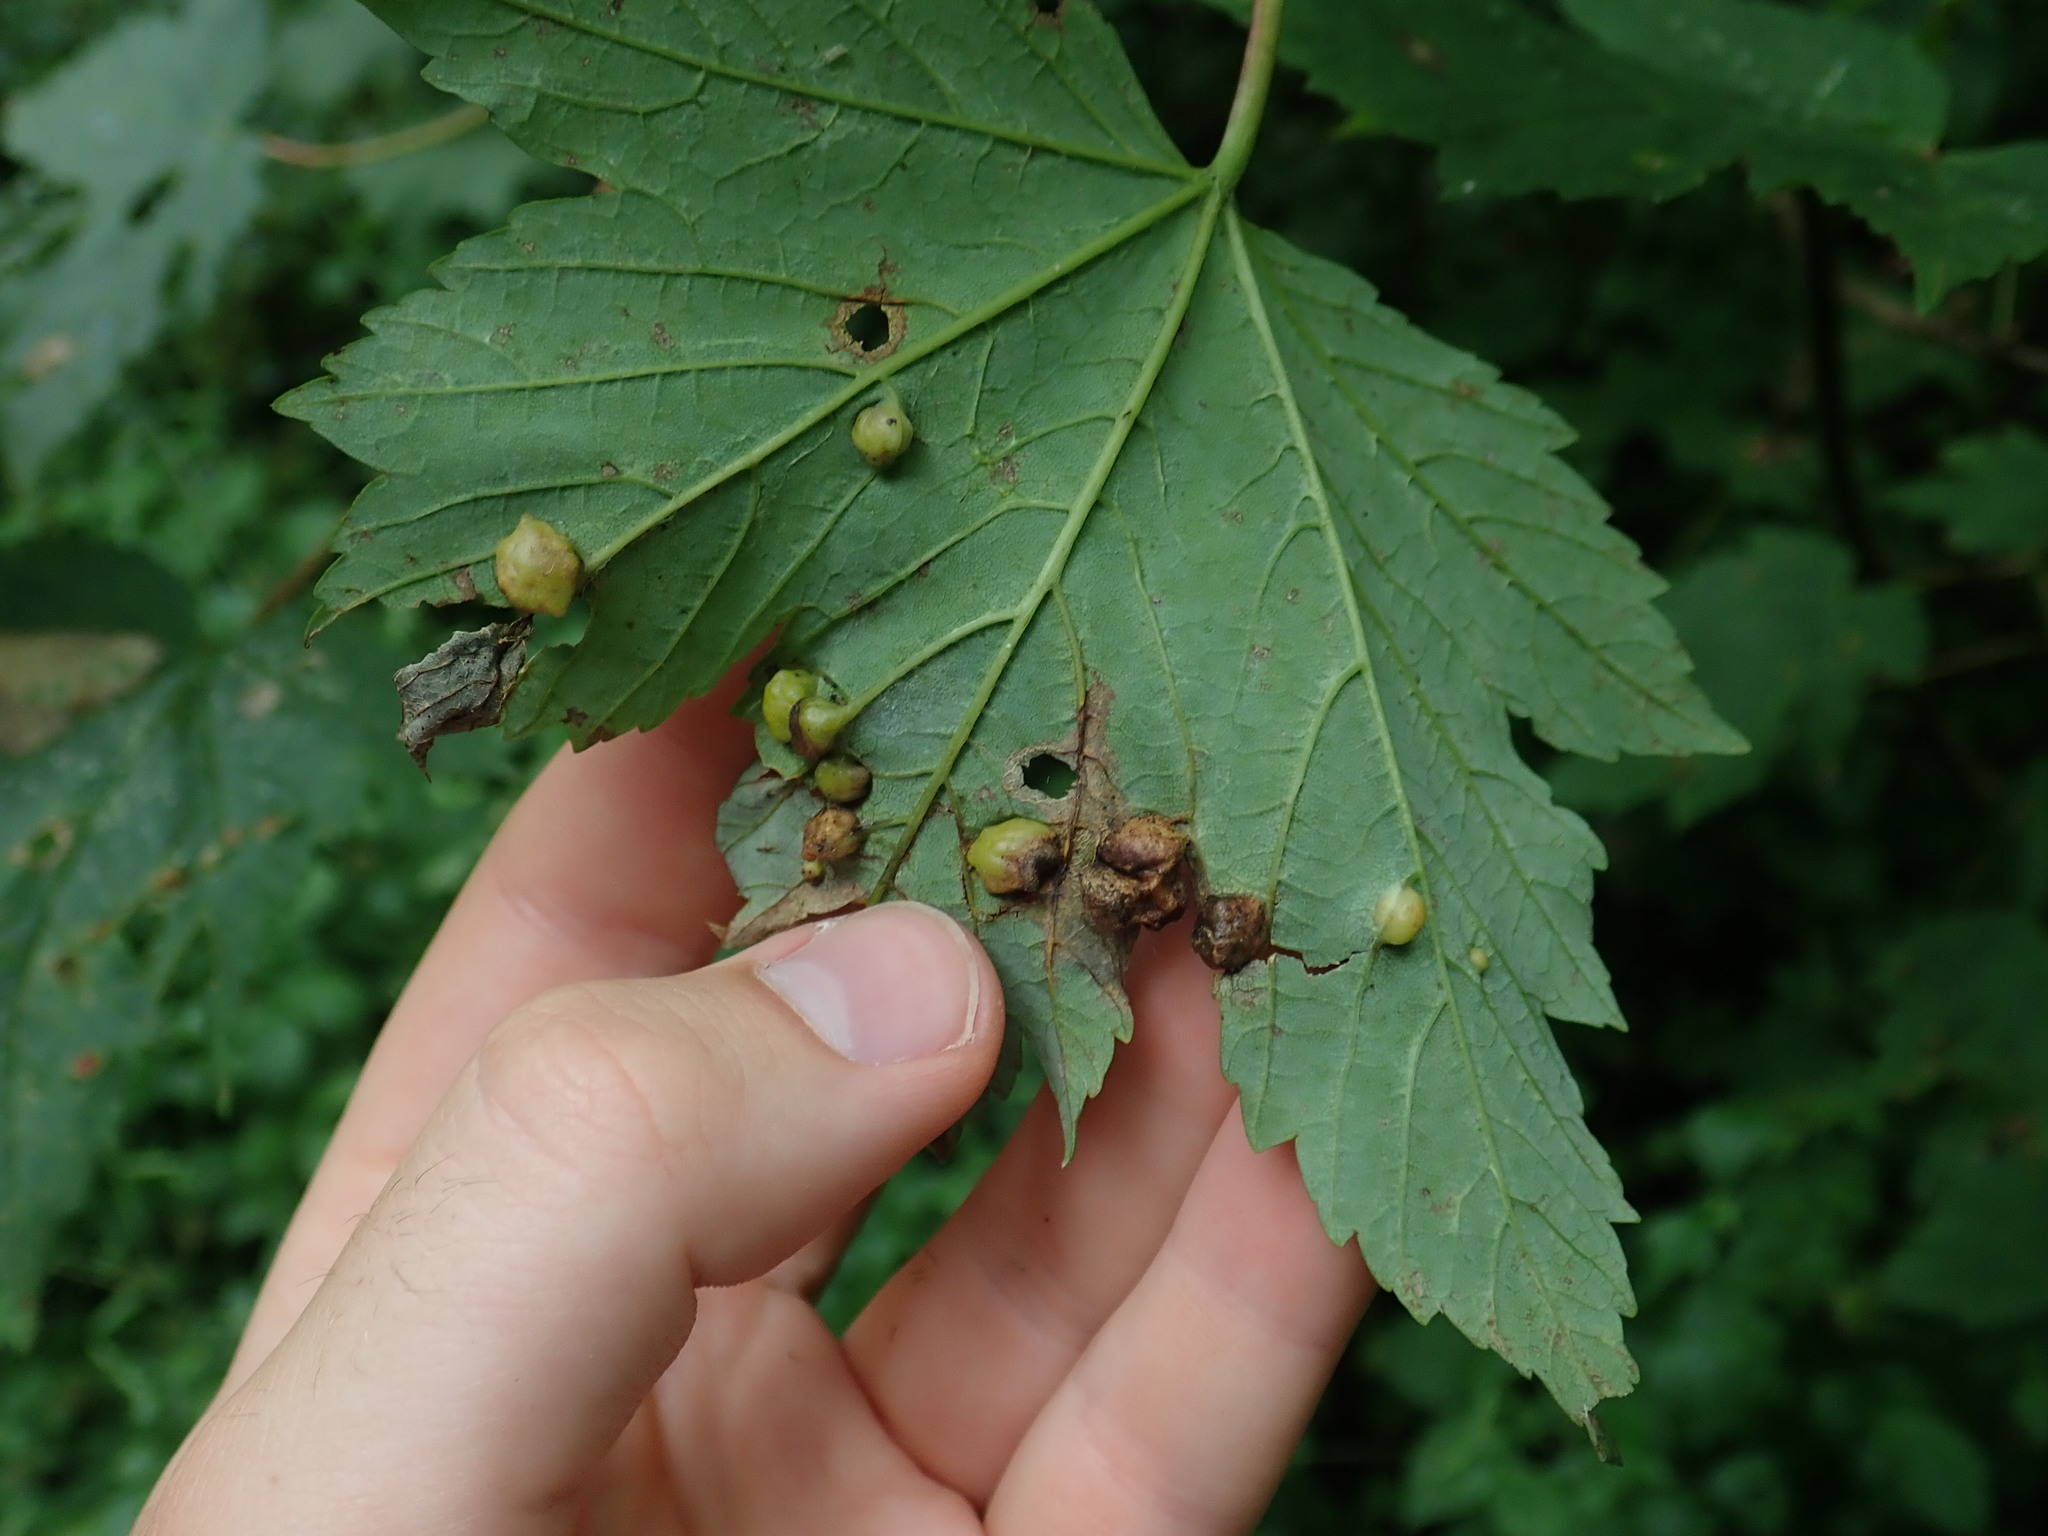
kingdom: Animalia
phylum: Arthropoda
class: Insecta
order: Hymenoptera
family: Cynipidae
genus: Pediaspis
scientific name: Pediaspis aceris
